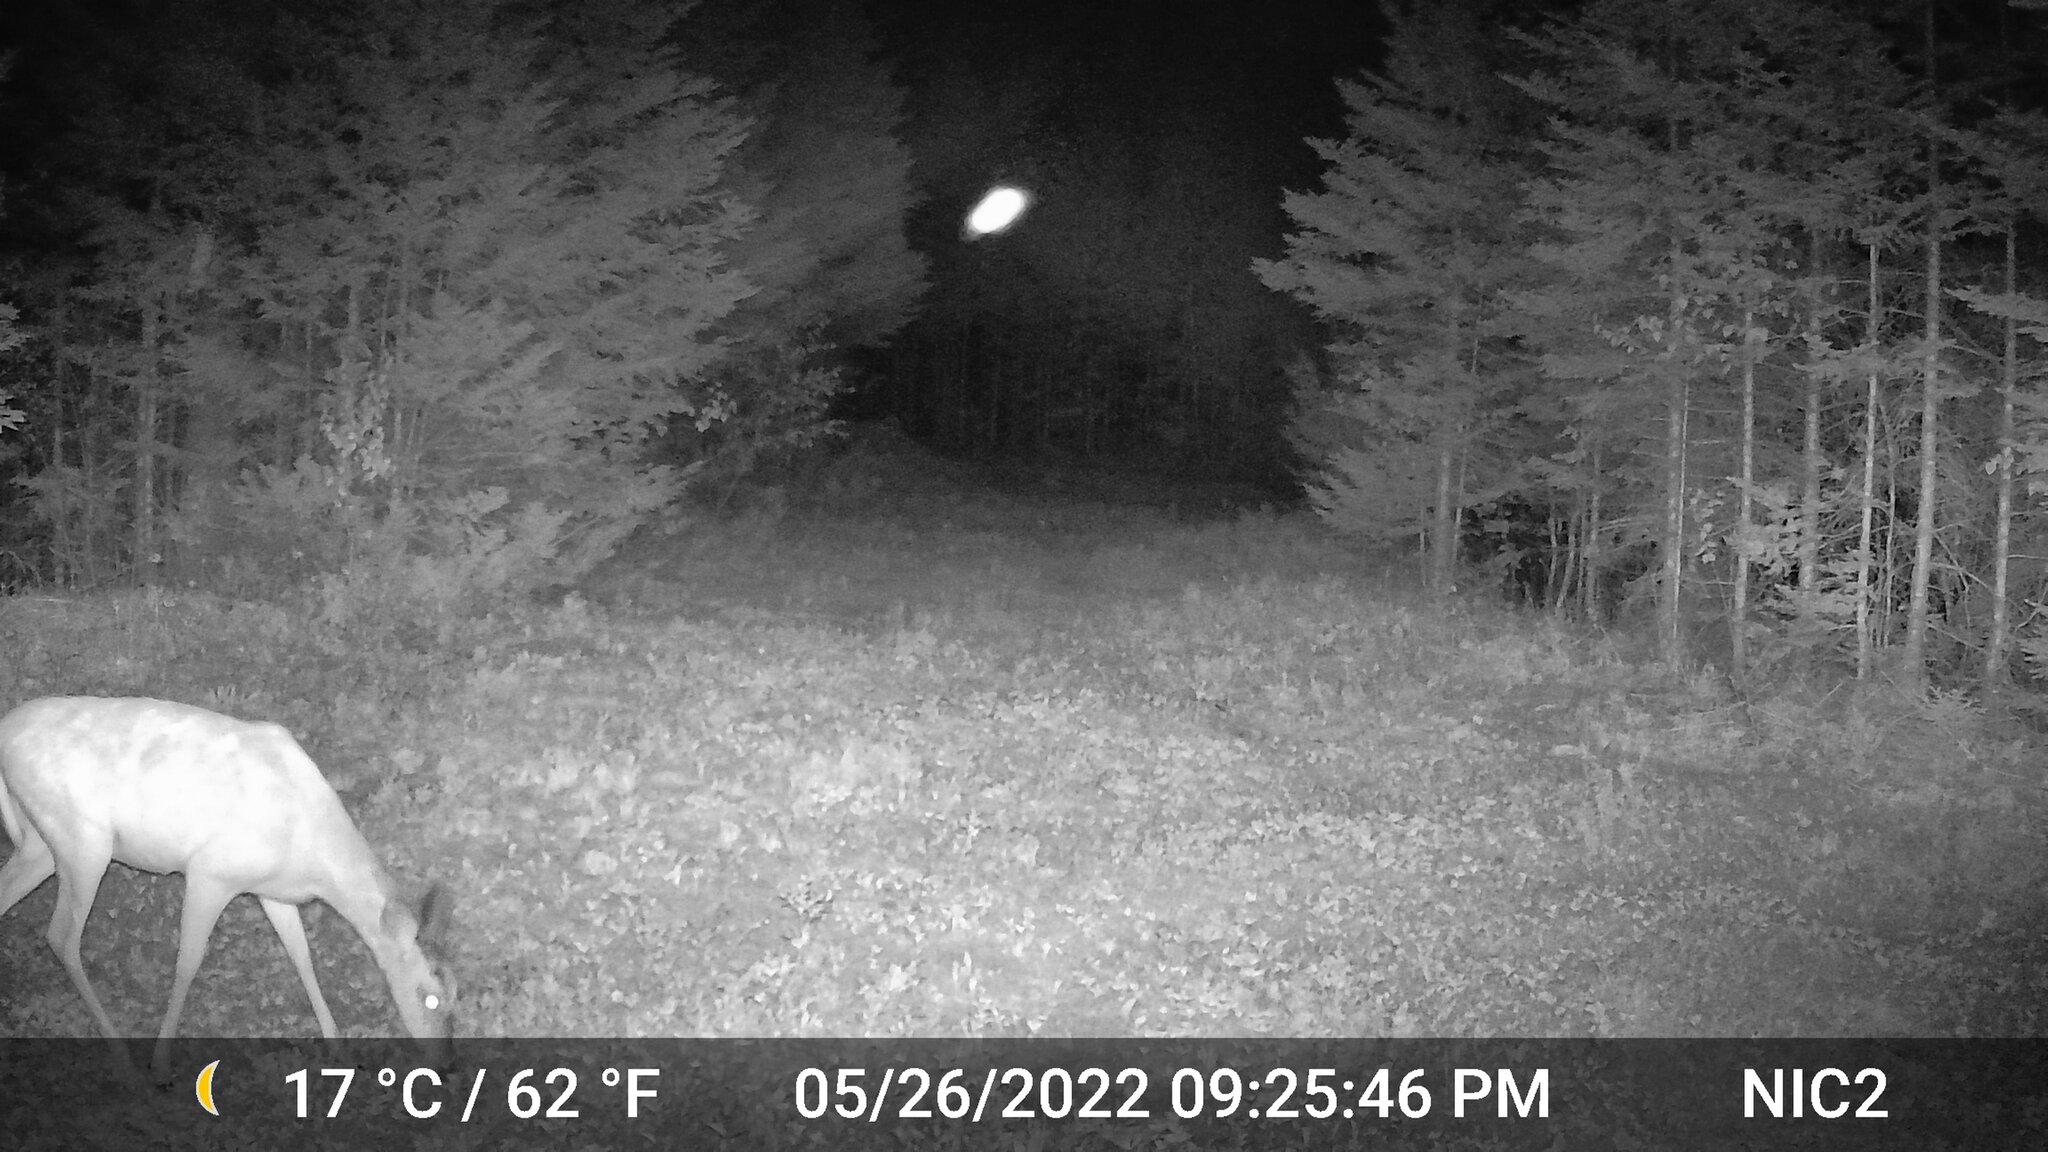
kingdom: Animalia
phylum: Chordata
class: Mammalia
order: Artiodactyla
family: Cervidae
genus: Odocoileus
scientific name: Odocoileus virginianus
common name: White-tailed deer
